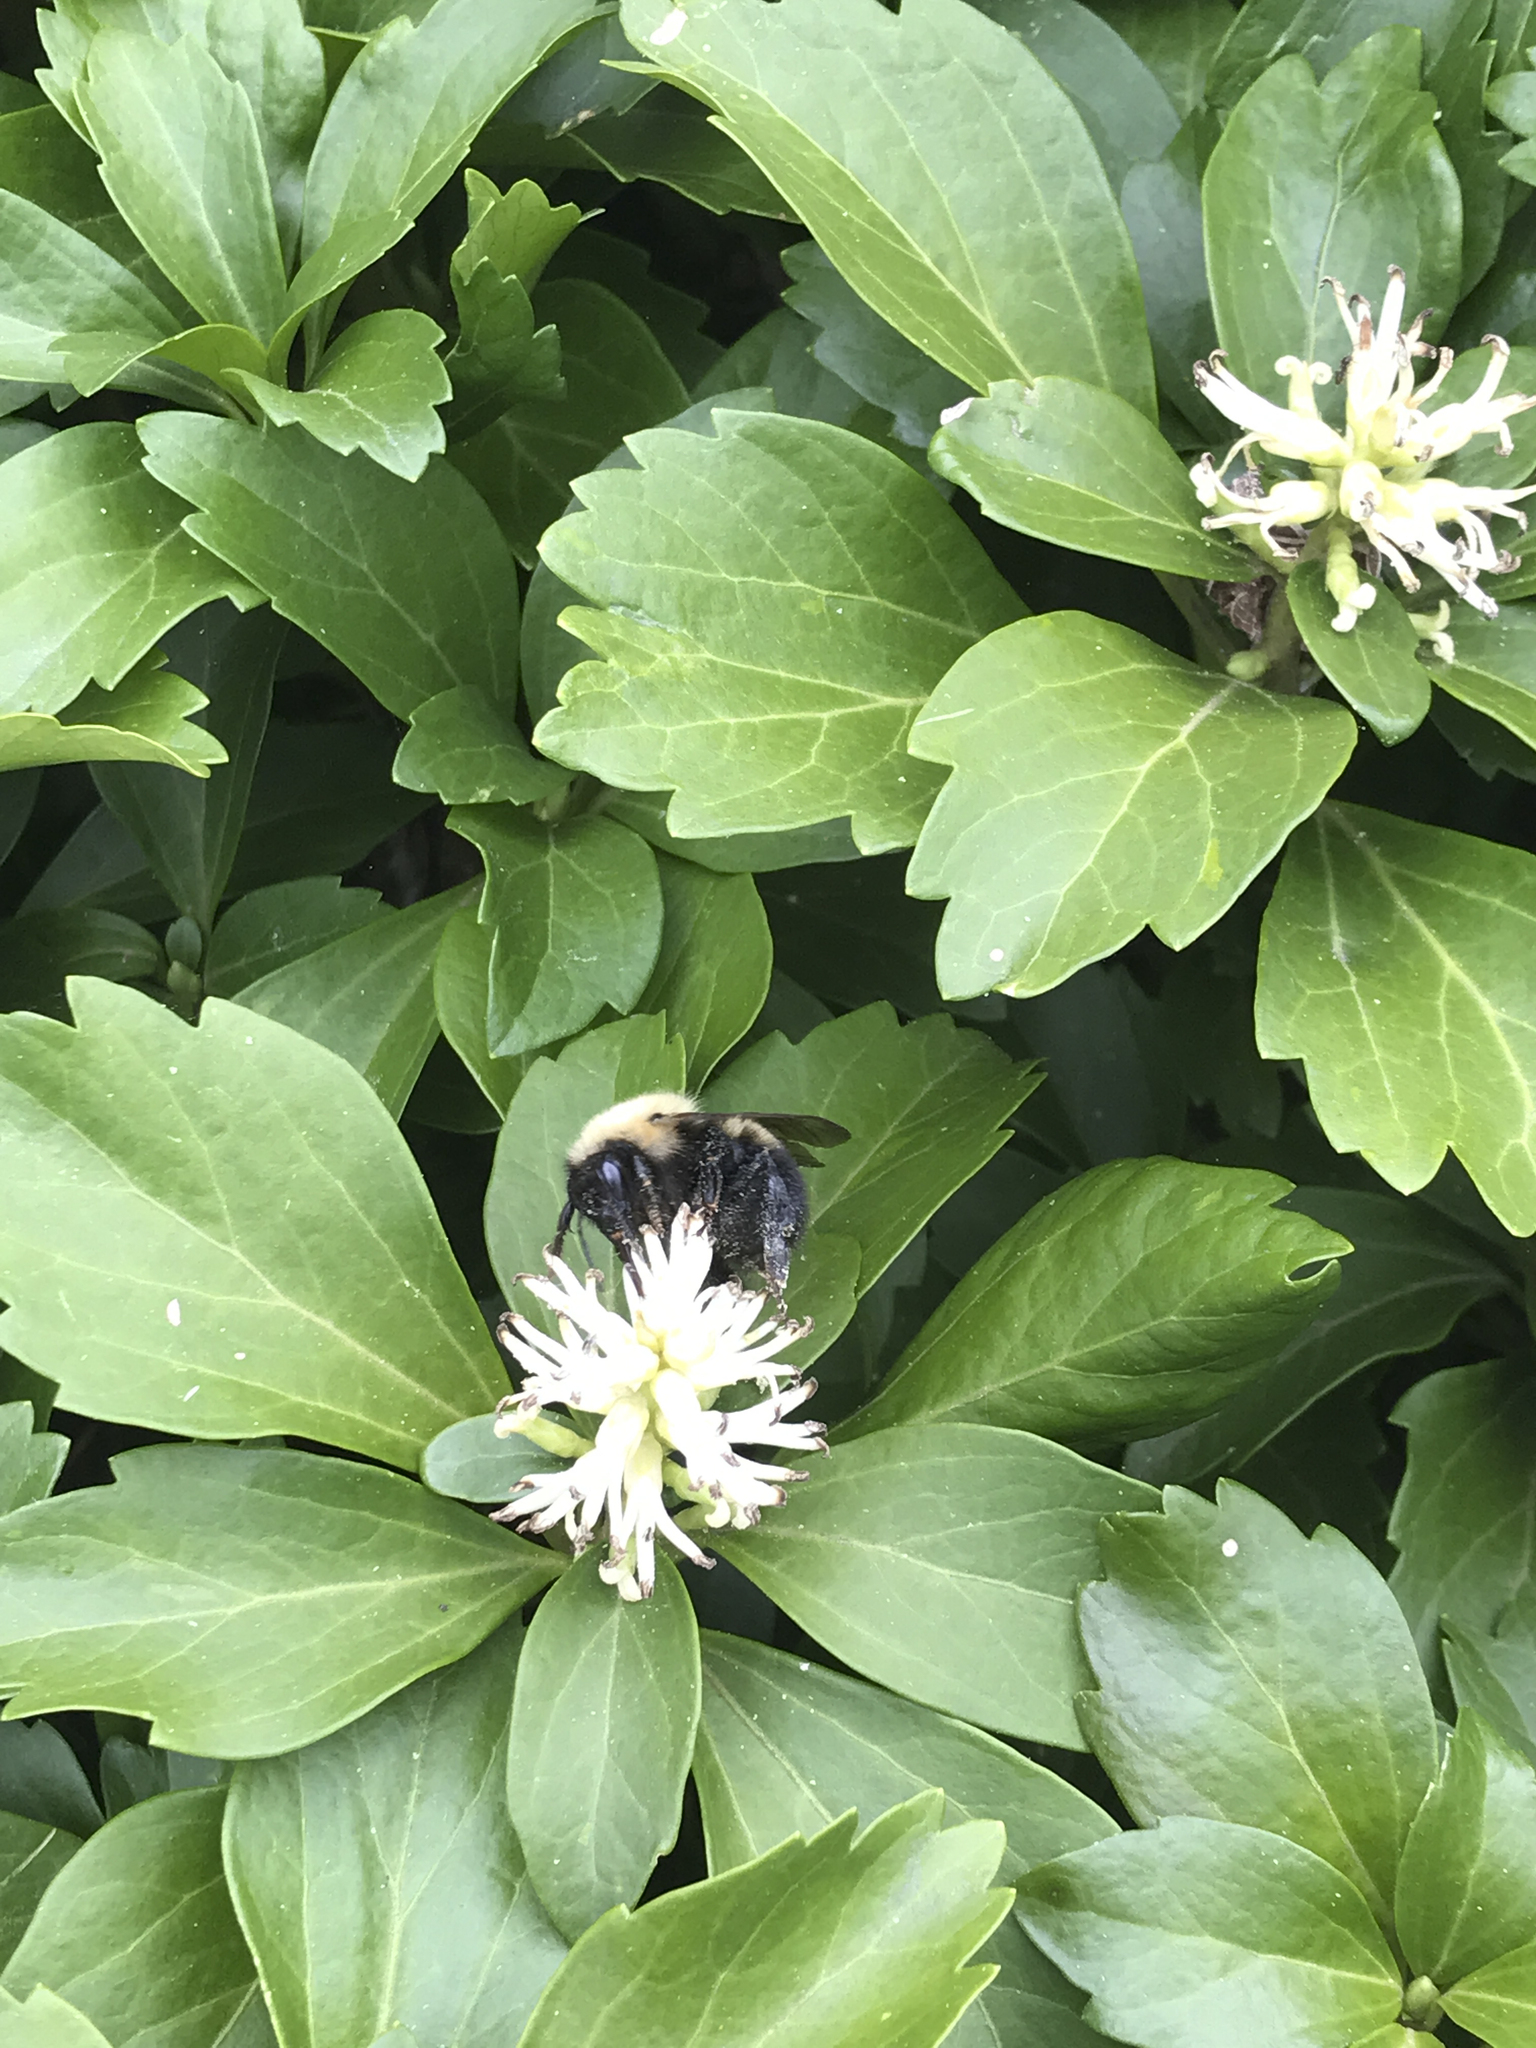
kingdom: Animalia
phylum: Arthropoda
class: Insecta
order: Hymenoptera
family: Apidae
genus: Bombus
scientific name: Bombus perplexus
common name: Confusing bumble bee
